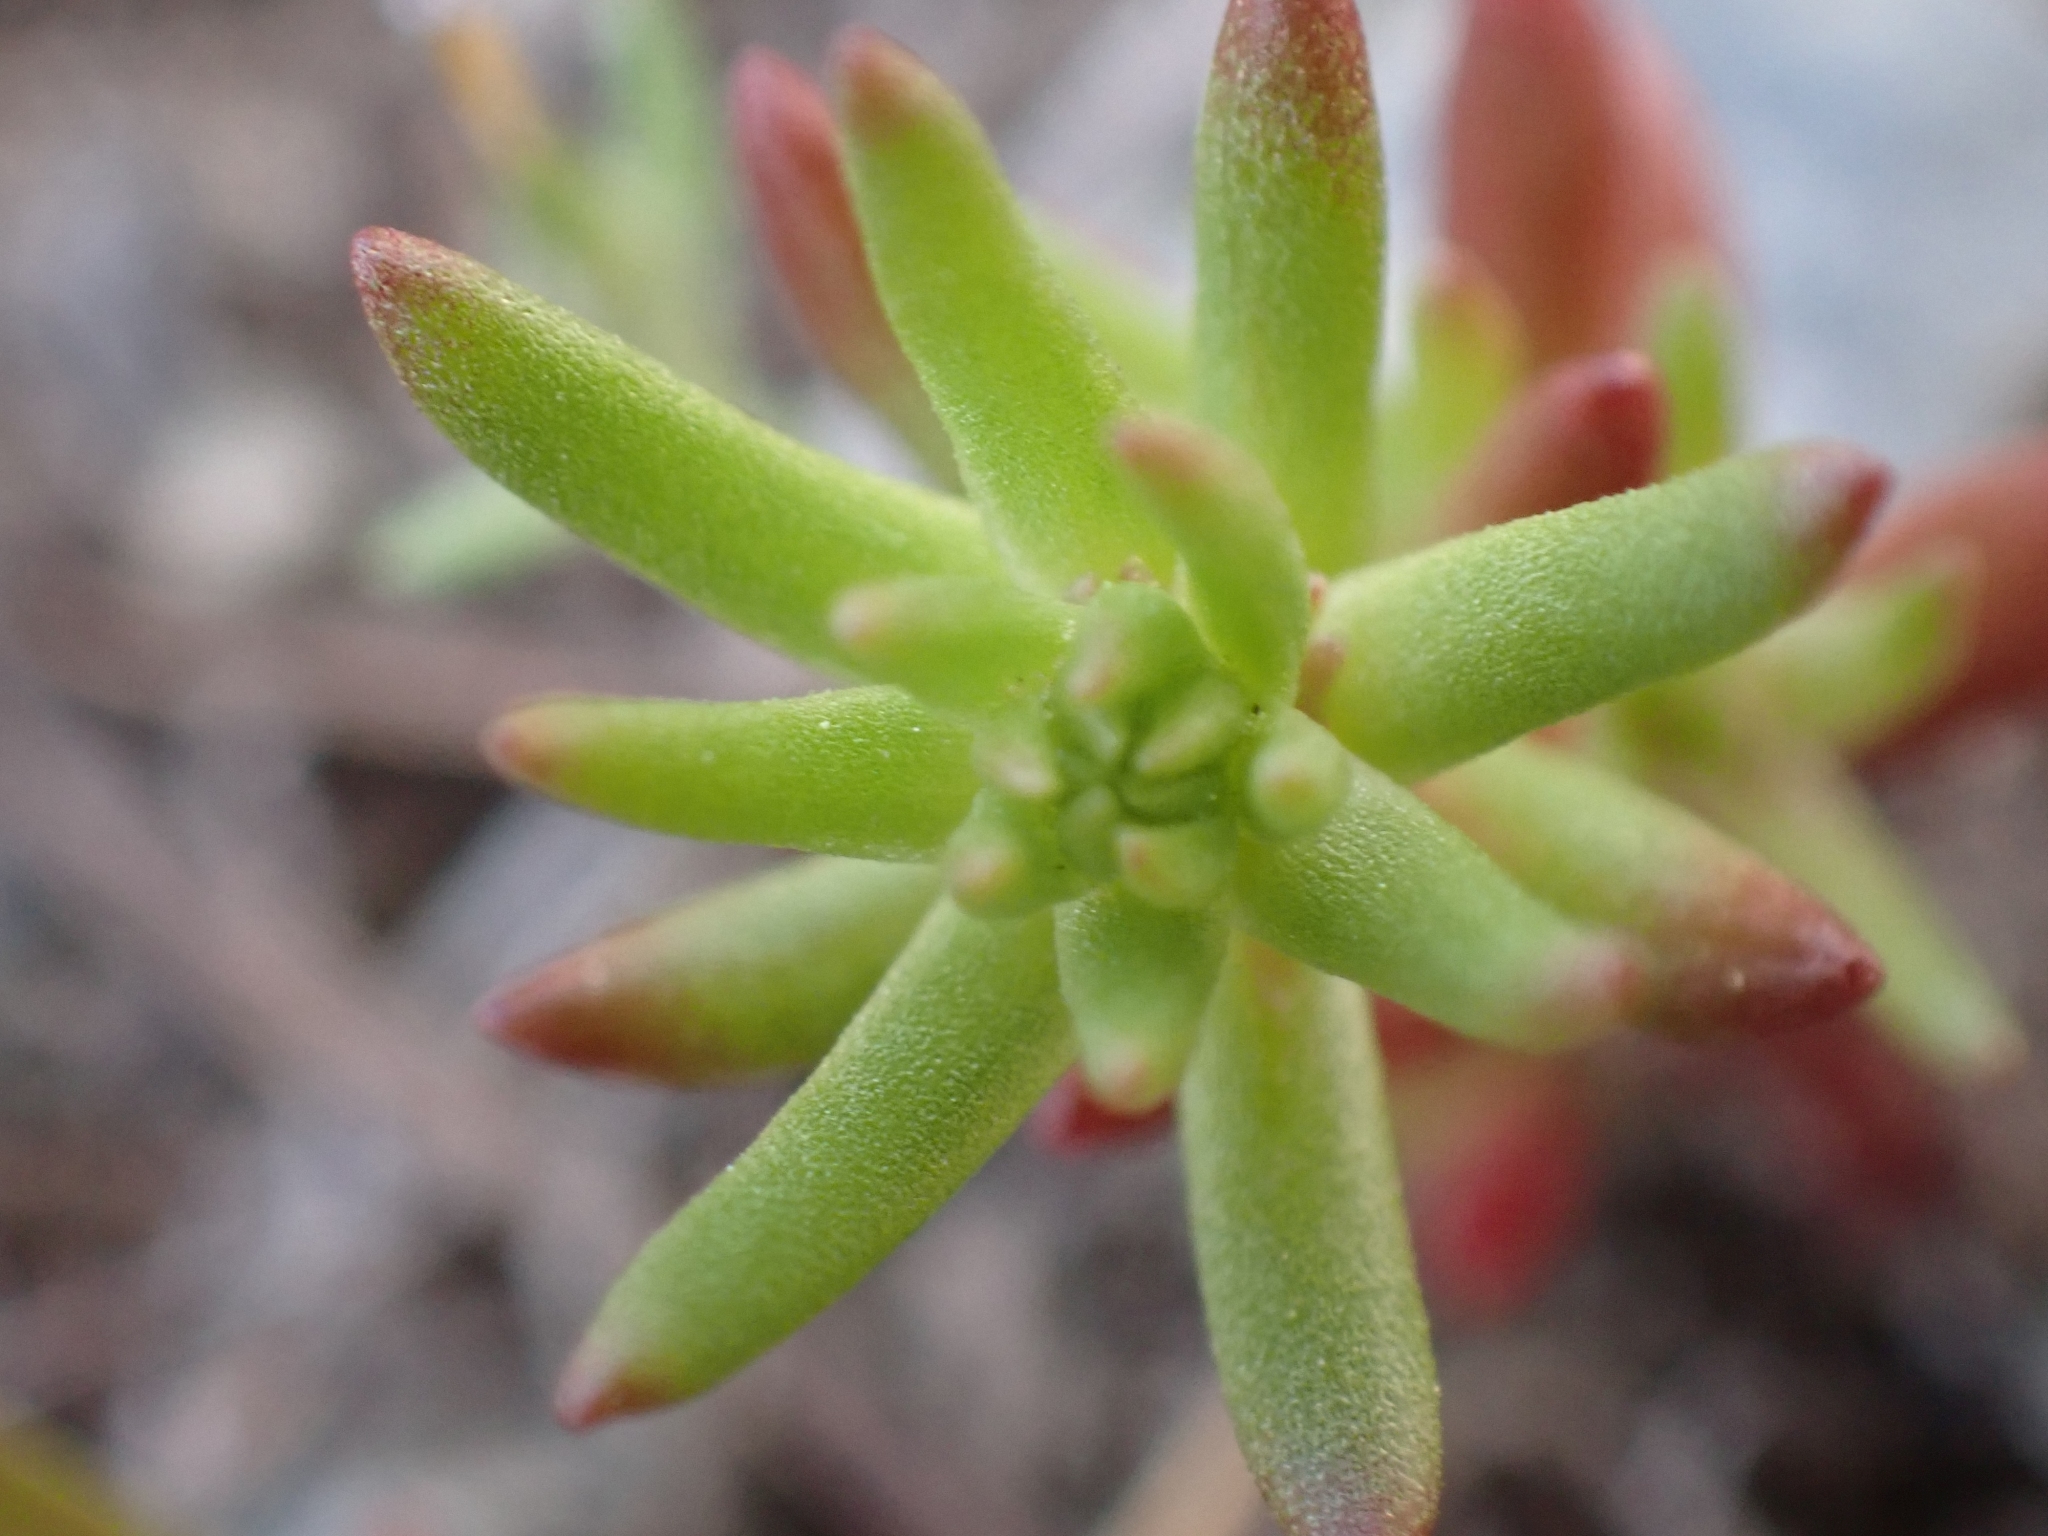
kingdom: Plantae
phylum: Tracheophyta
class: Magnoliopsida
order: Saxifragales
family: Crassulaceae
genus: Sedum
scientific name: Sedum stenopetalum
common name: Narrow-petaled stonecrop
